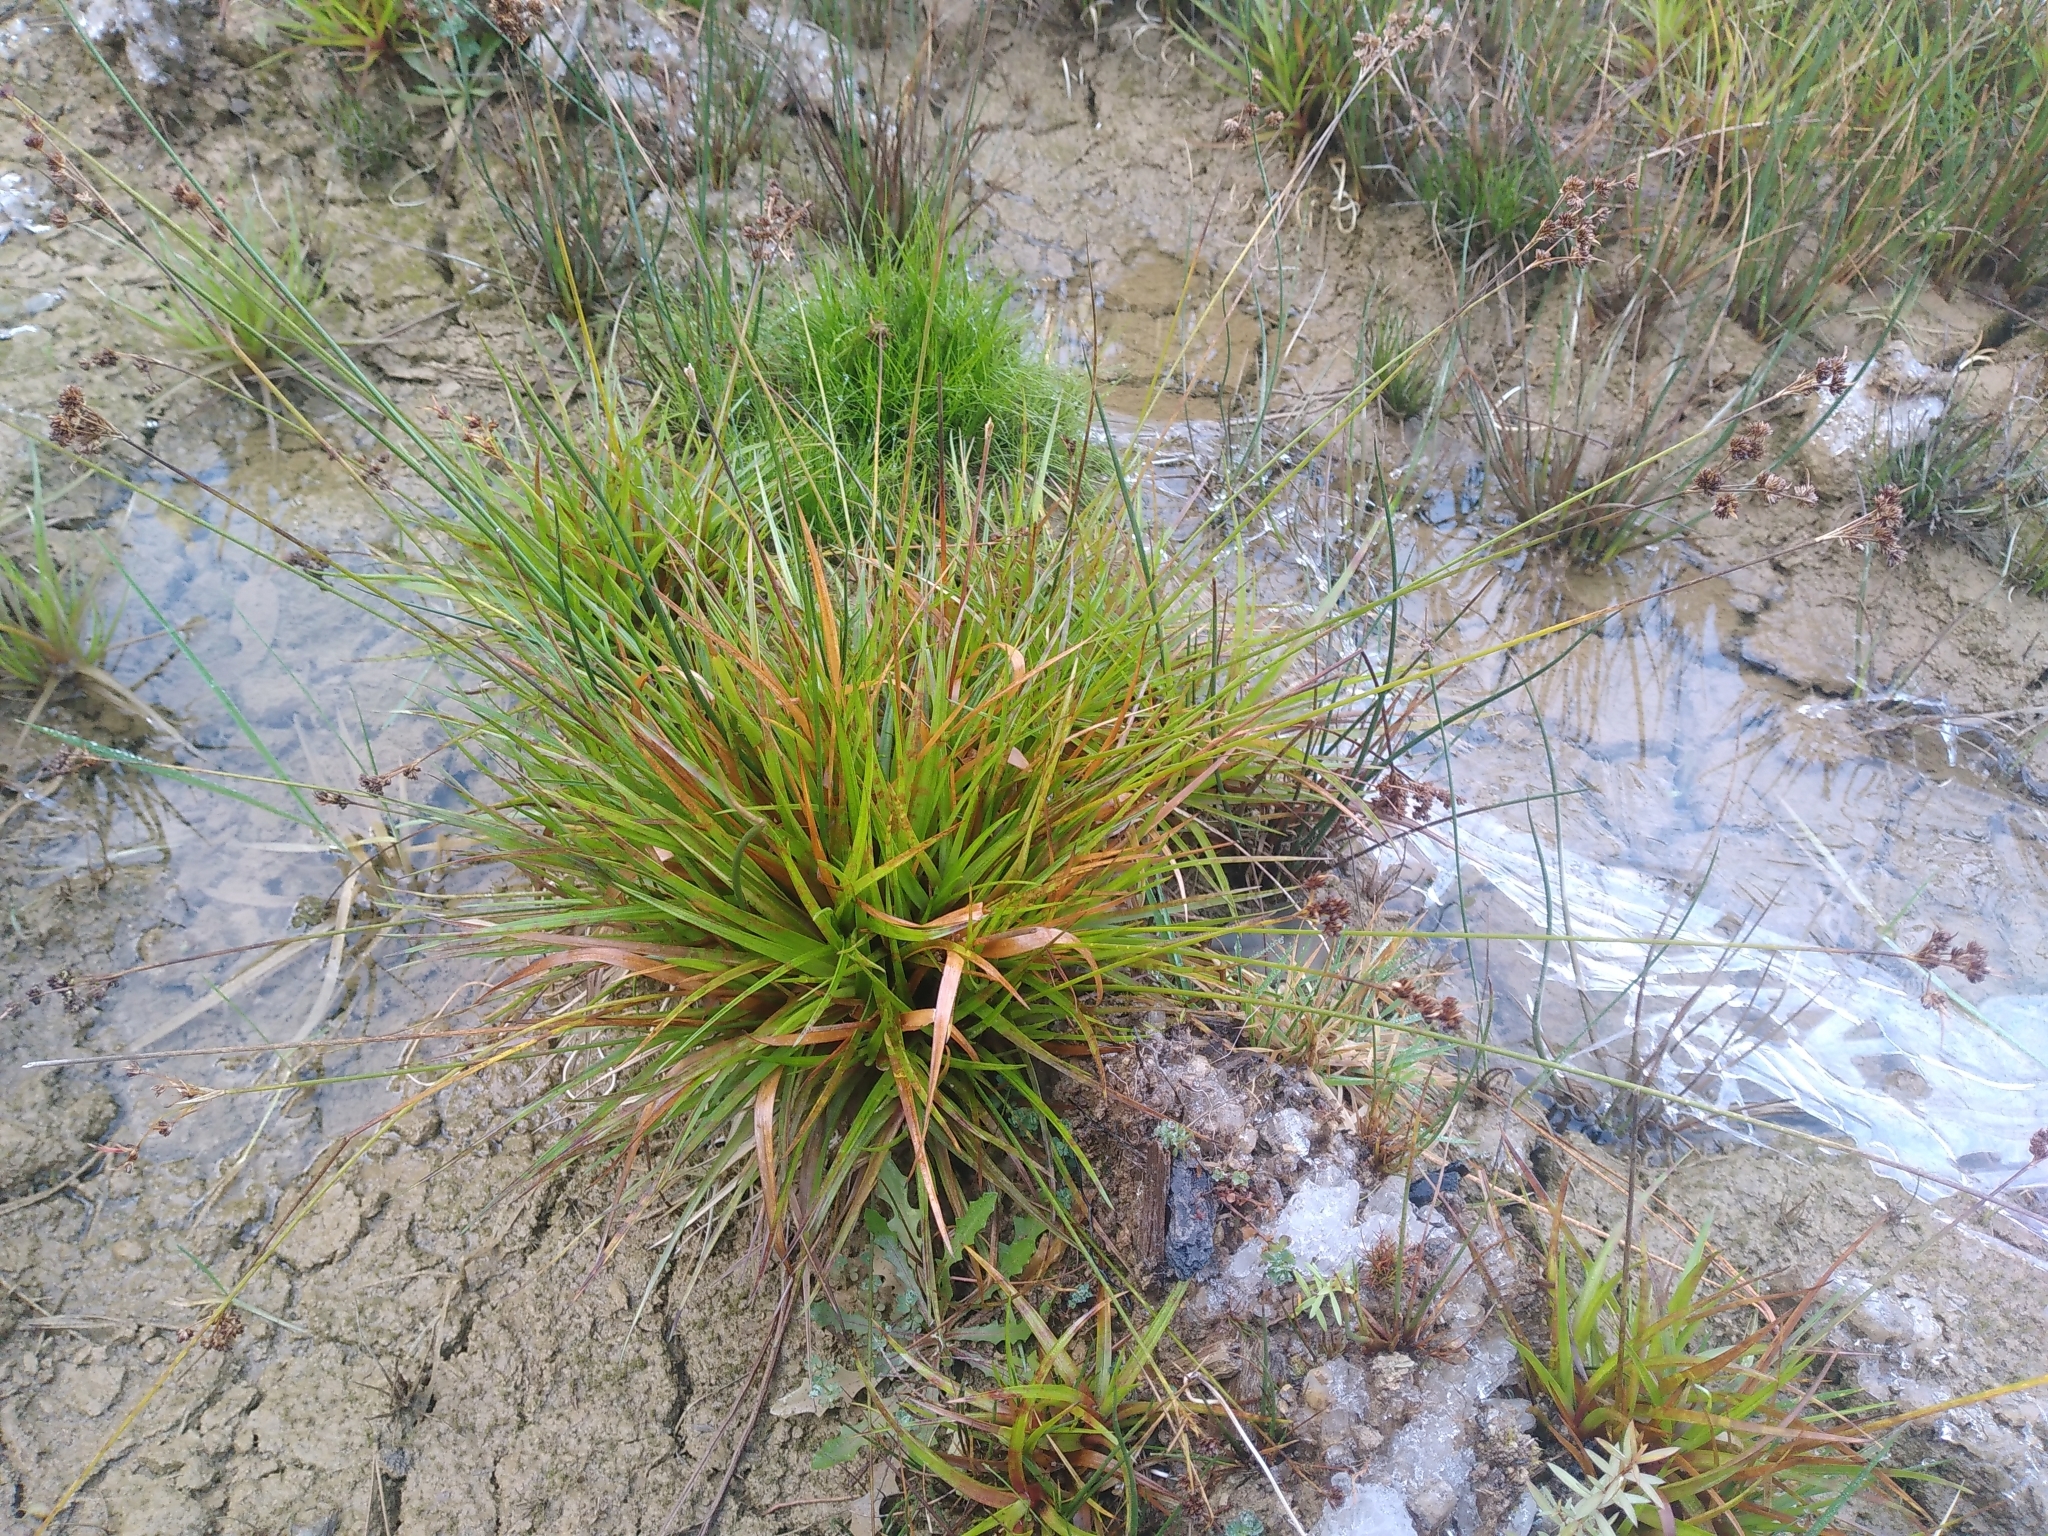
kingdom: Plantae
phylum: Tracheophyta
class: Liliopsida
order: Poales
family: Juncaceae
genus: Juncus
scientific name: Juncus planifolius
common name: Broadleaf rush
